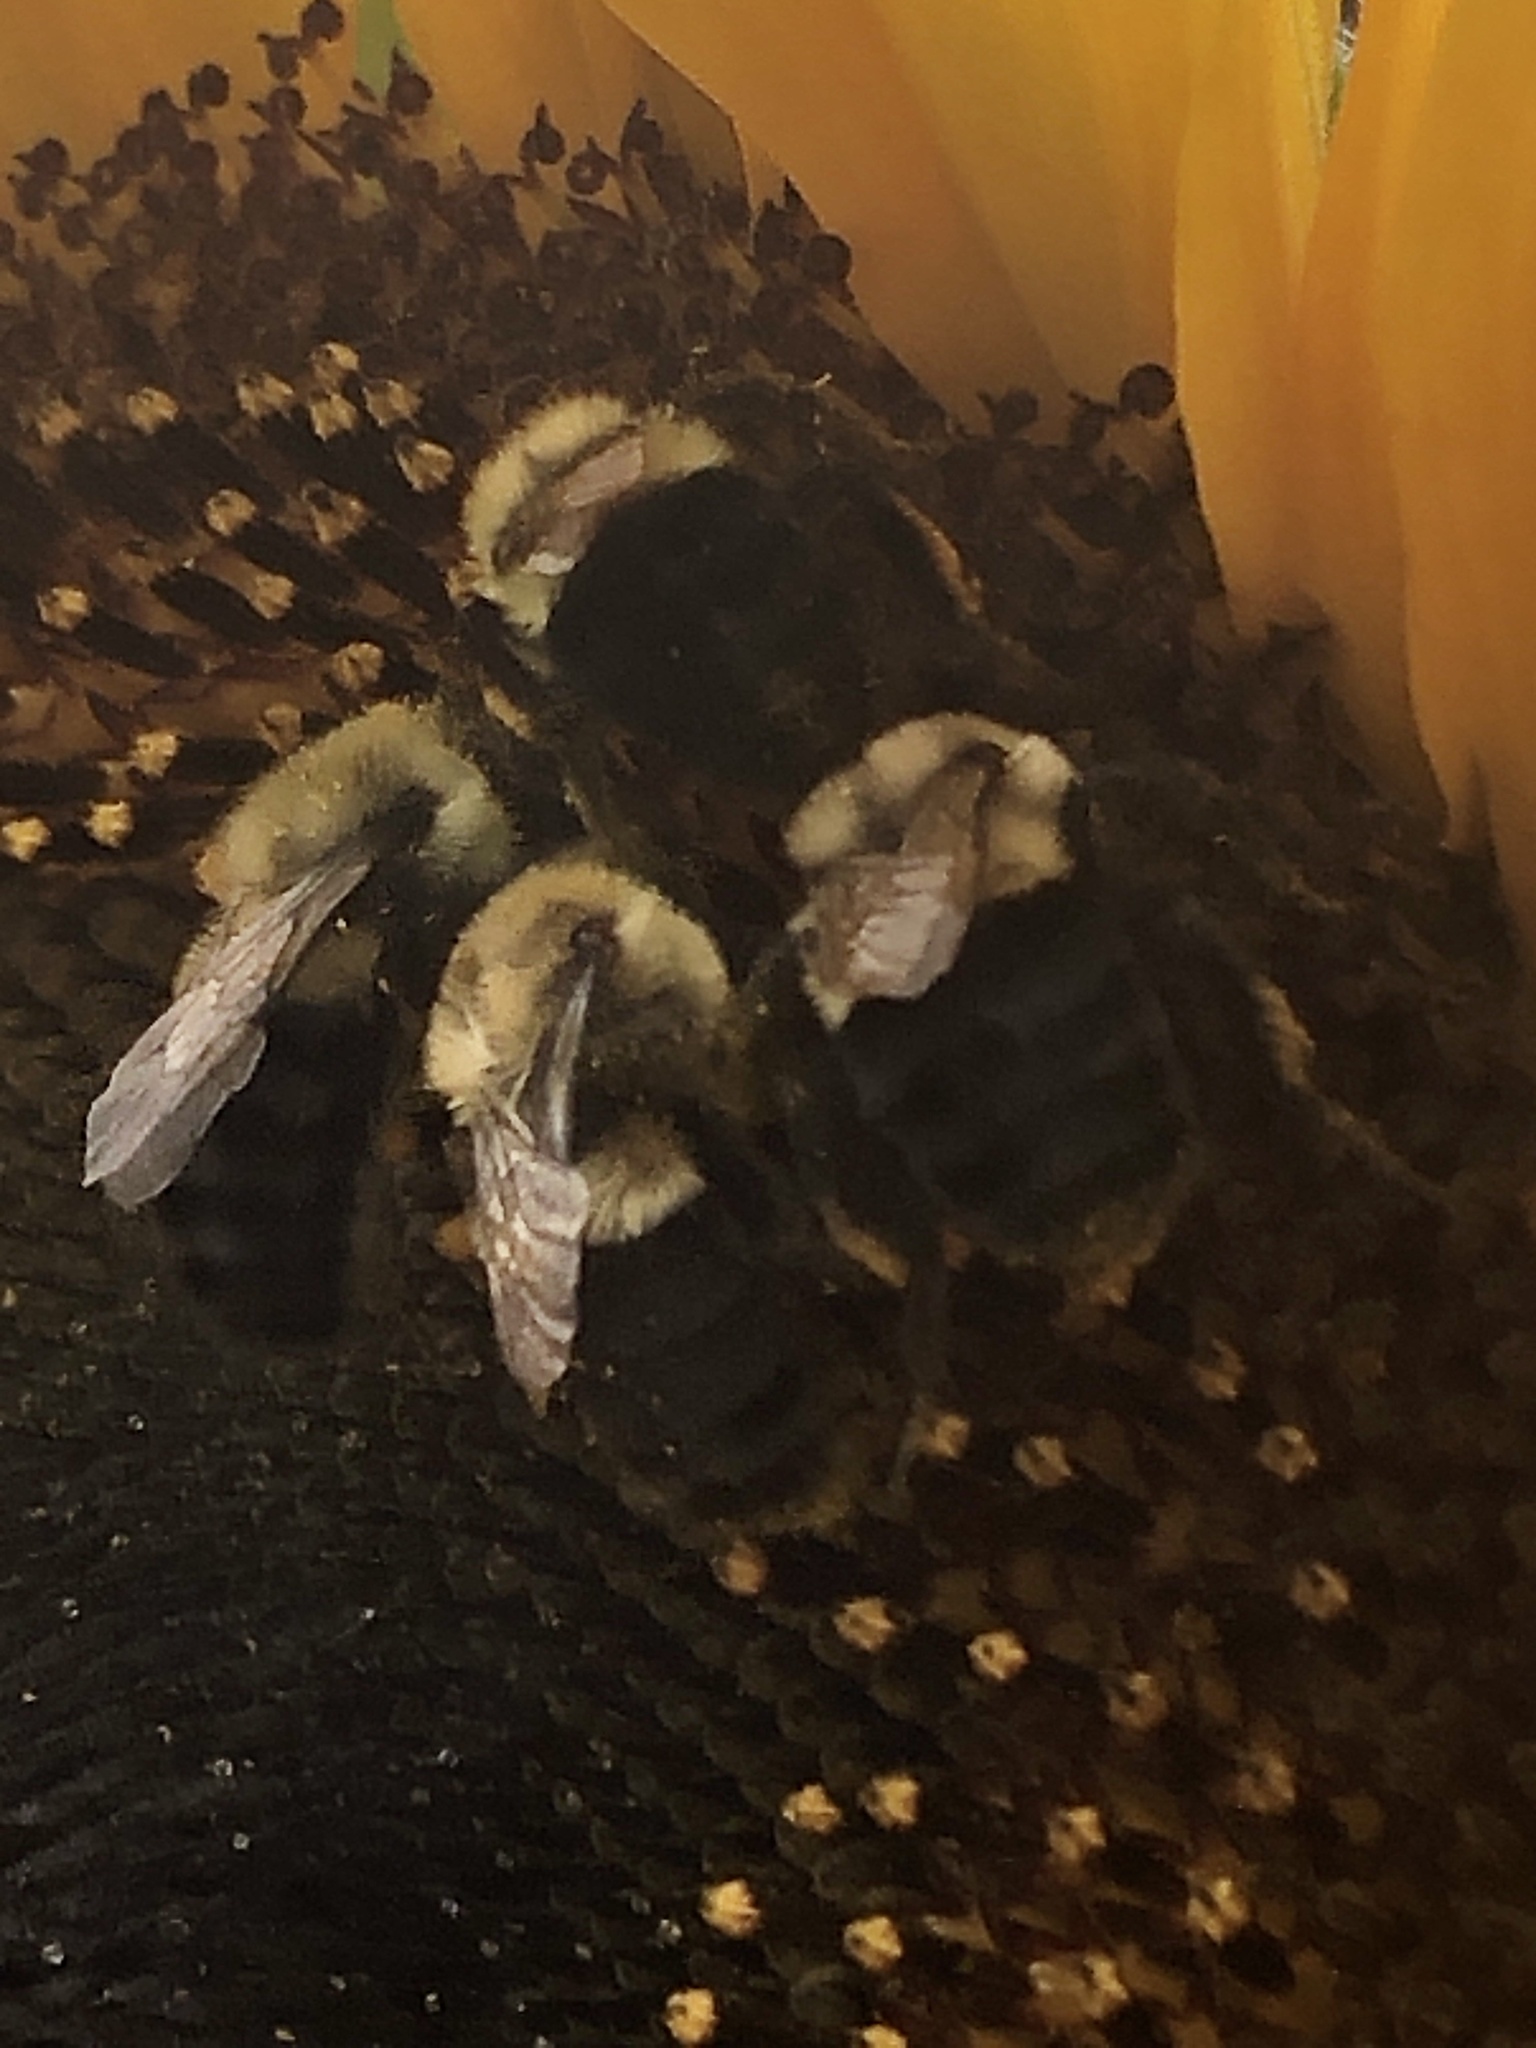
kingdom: Animalia
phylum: Arthropoda
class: Insecta
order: Hymenoptera
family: Apidae
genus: Bombus
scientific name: Bombus impatiens
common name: Common eastern bumble bee
